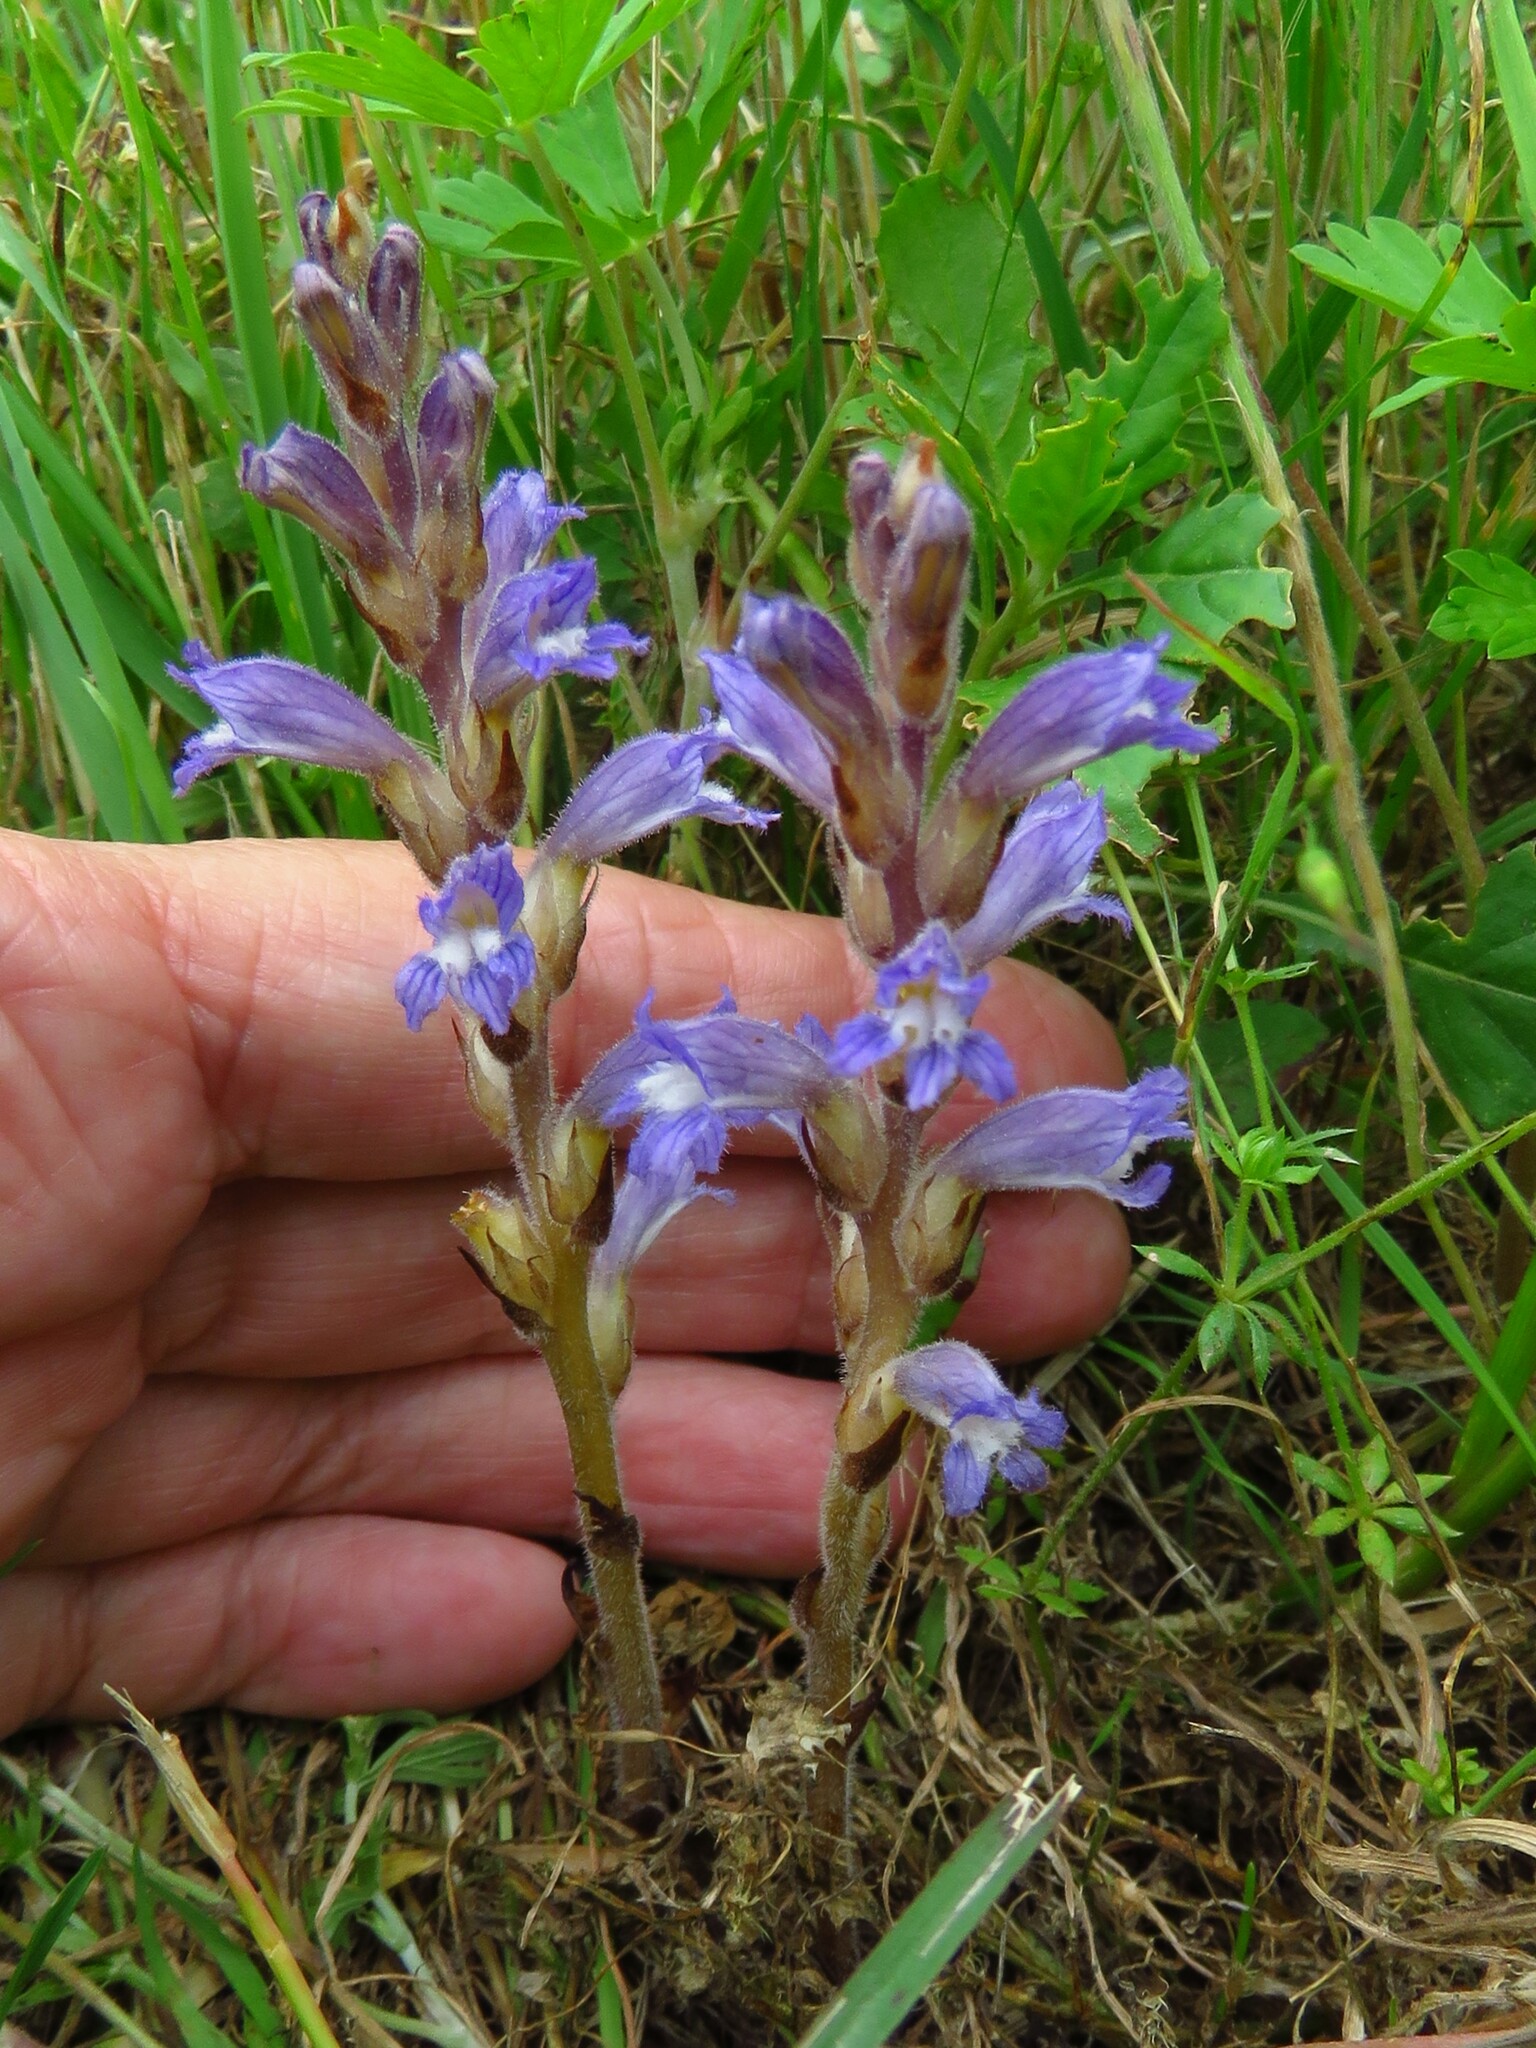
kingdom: Plantae
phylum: Tracheophyta
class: Magnoliopsida
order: Lamiales
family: Orobanchaceae
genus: Phelipanche
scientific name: Phelipanche mutelii
